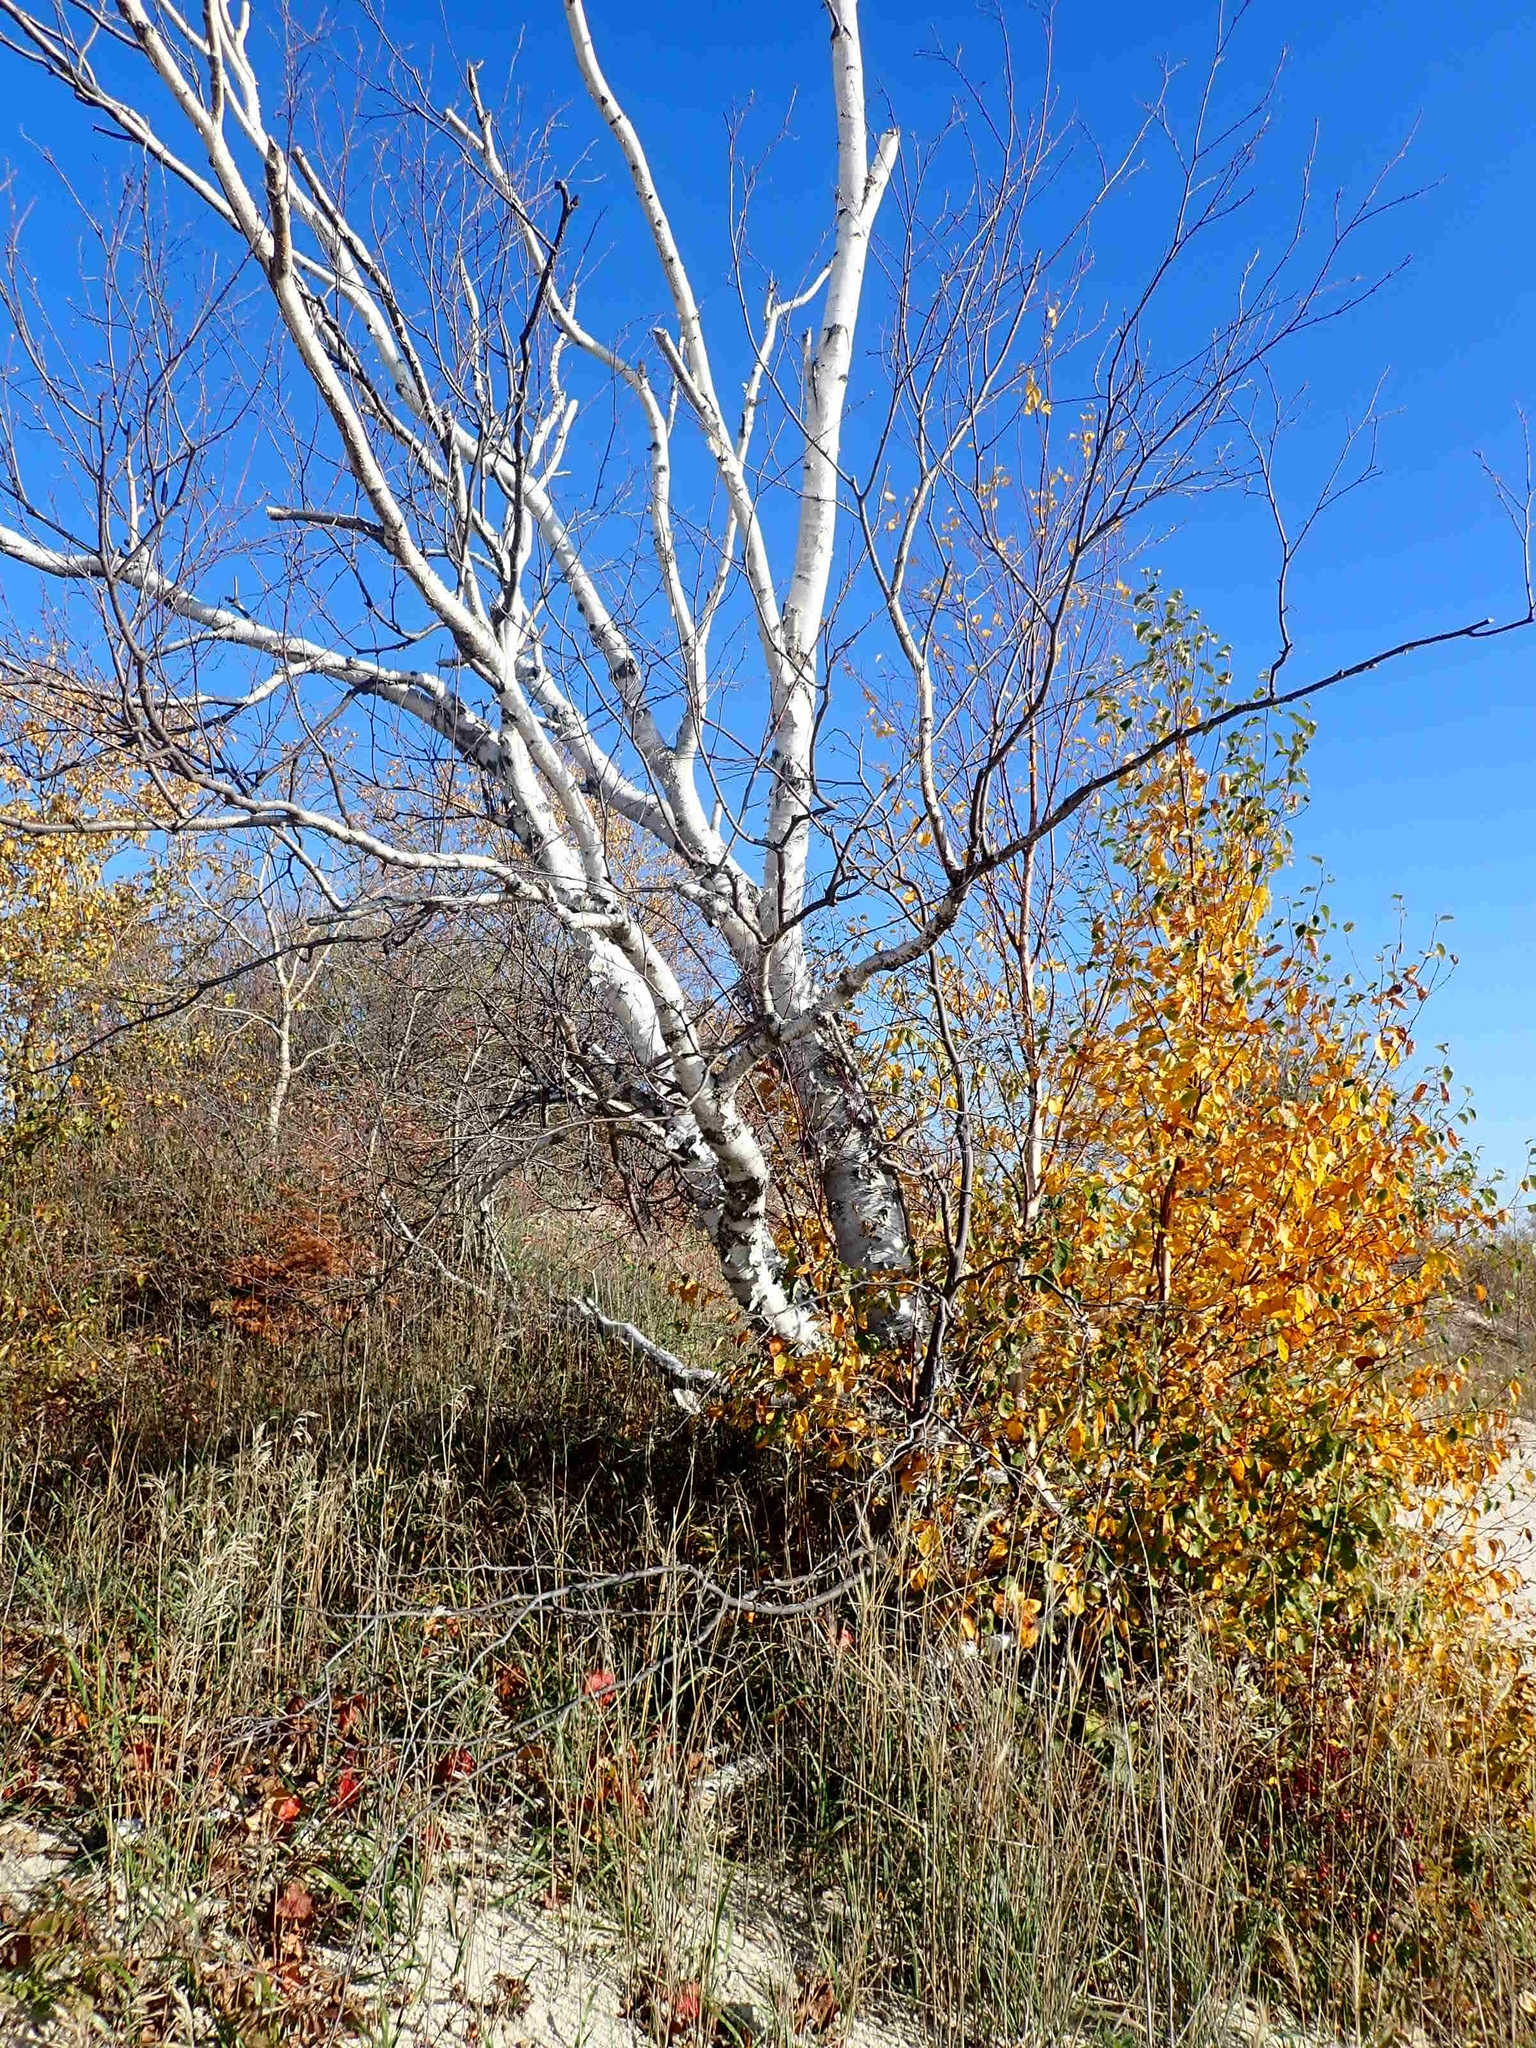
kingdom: Plantae
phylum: Tracheophyta
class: Magnoliopsida
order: Fagales
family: Betulaceae
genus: Betula
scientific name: Betula papyrifera
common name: Paper birch
